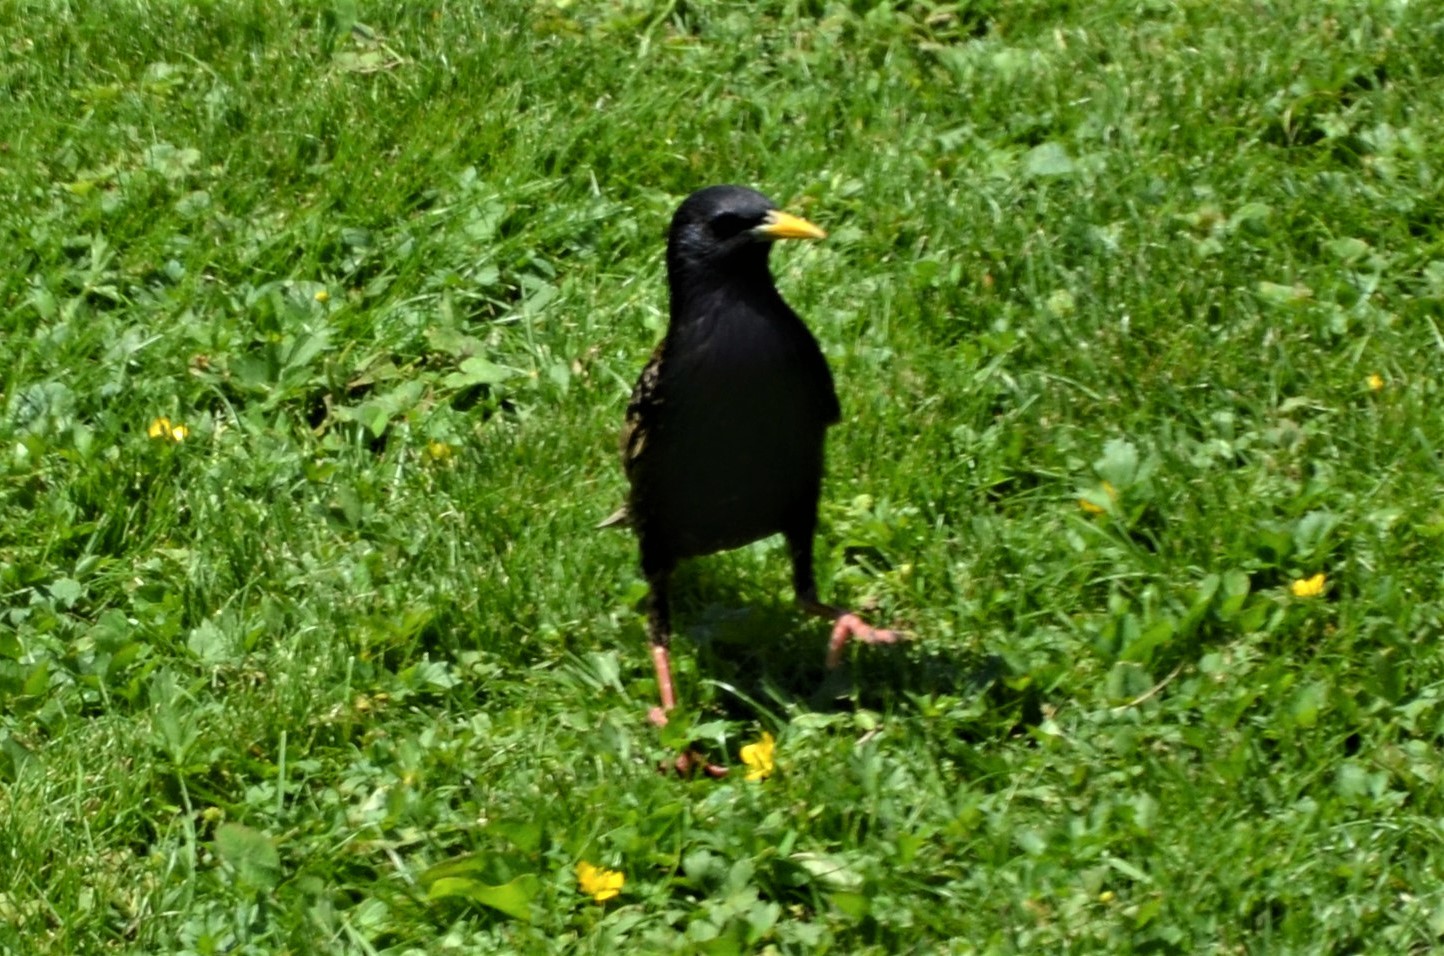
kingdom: Animalia
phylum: Chordata
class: Aves
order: Passeriformes
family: Sturnidae
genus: Sturnus
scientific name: Sturnus vulgaris
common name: Common starling
